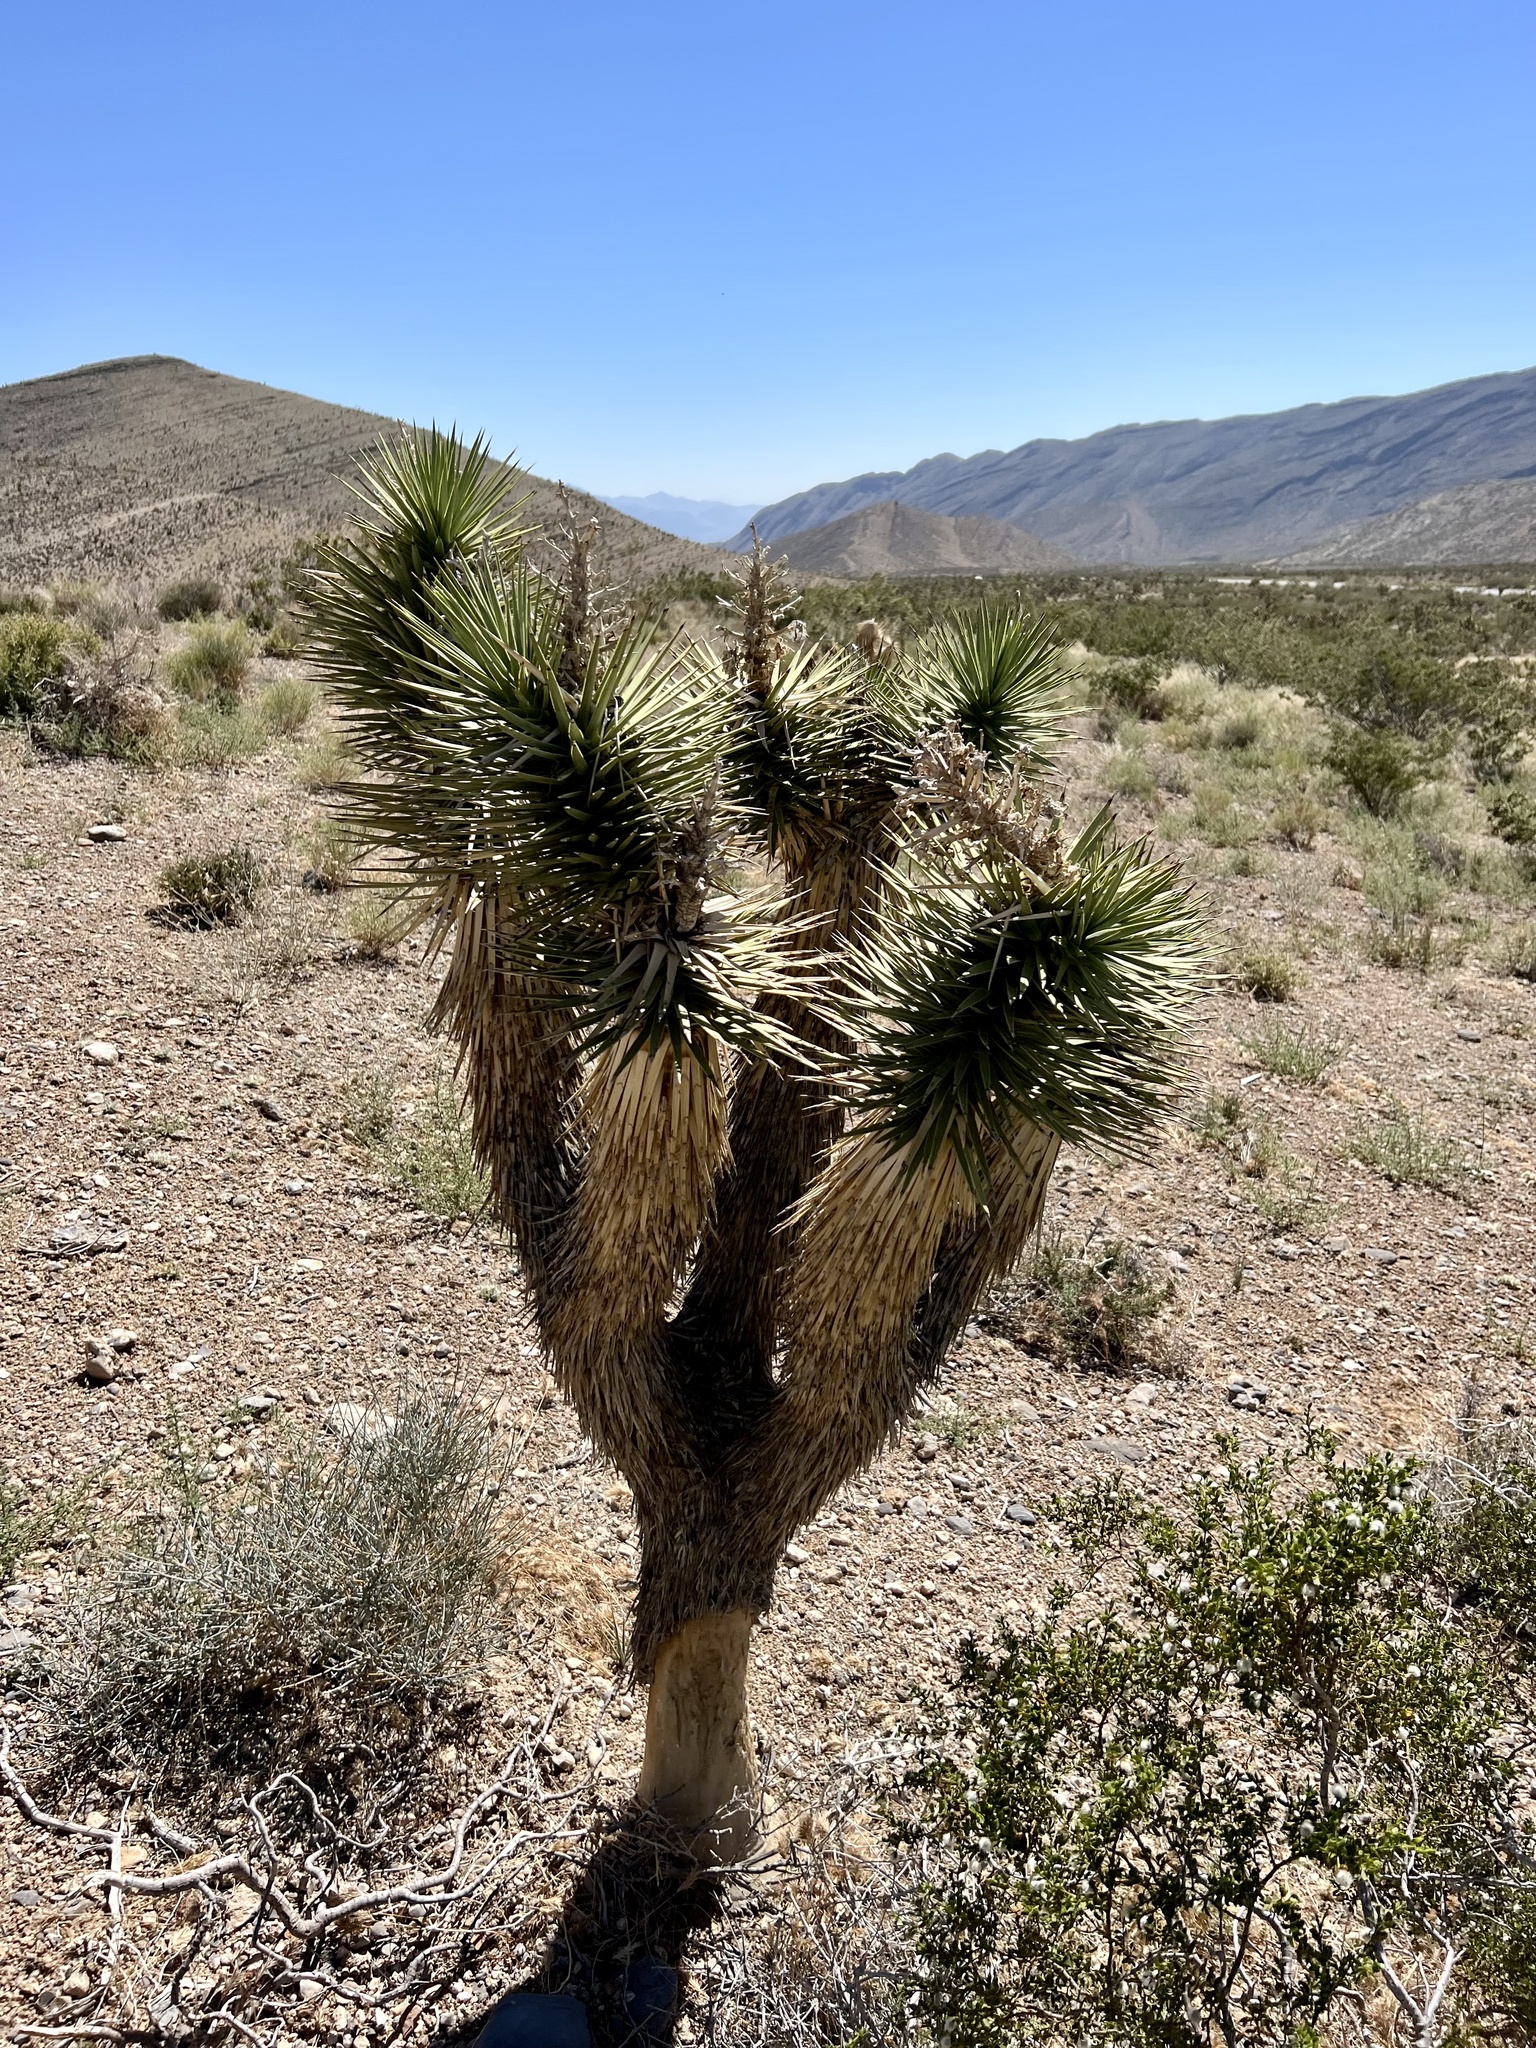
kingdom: Plantae
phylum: Tracheophyta
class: Liliopsida
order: Asparagales
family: Asparagaceae
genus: Yucca
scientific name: Yucca brevifolia
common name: Joshua tree
